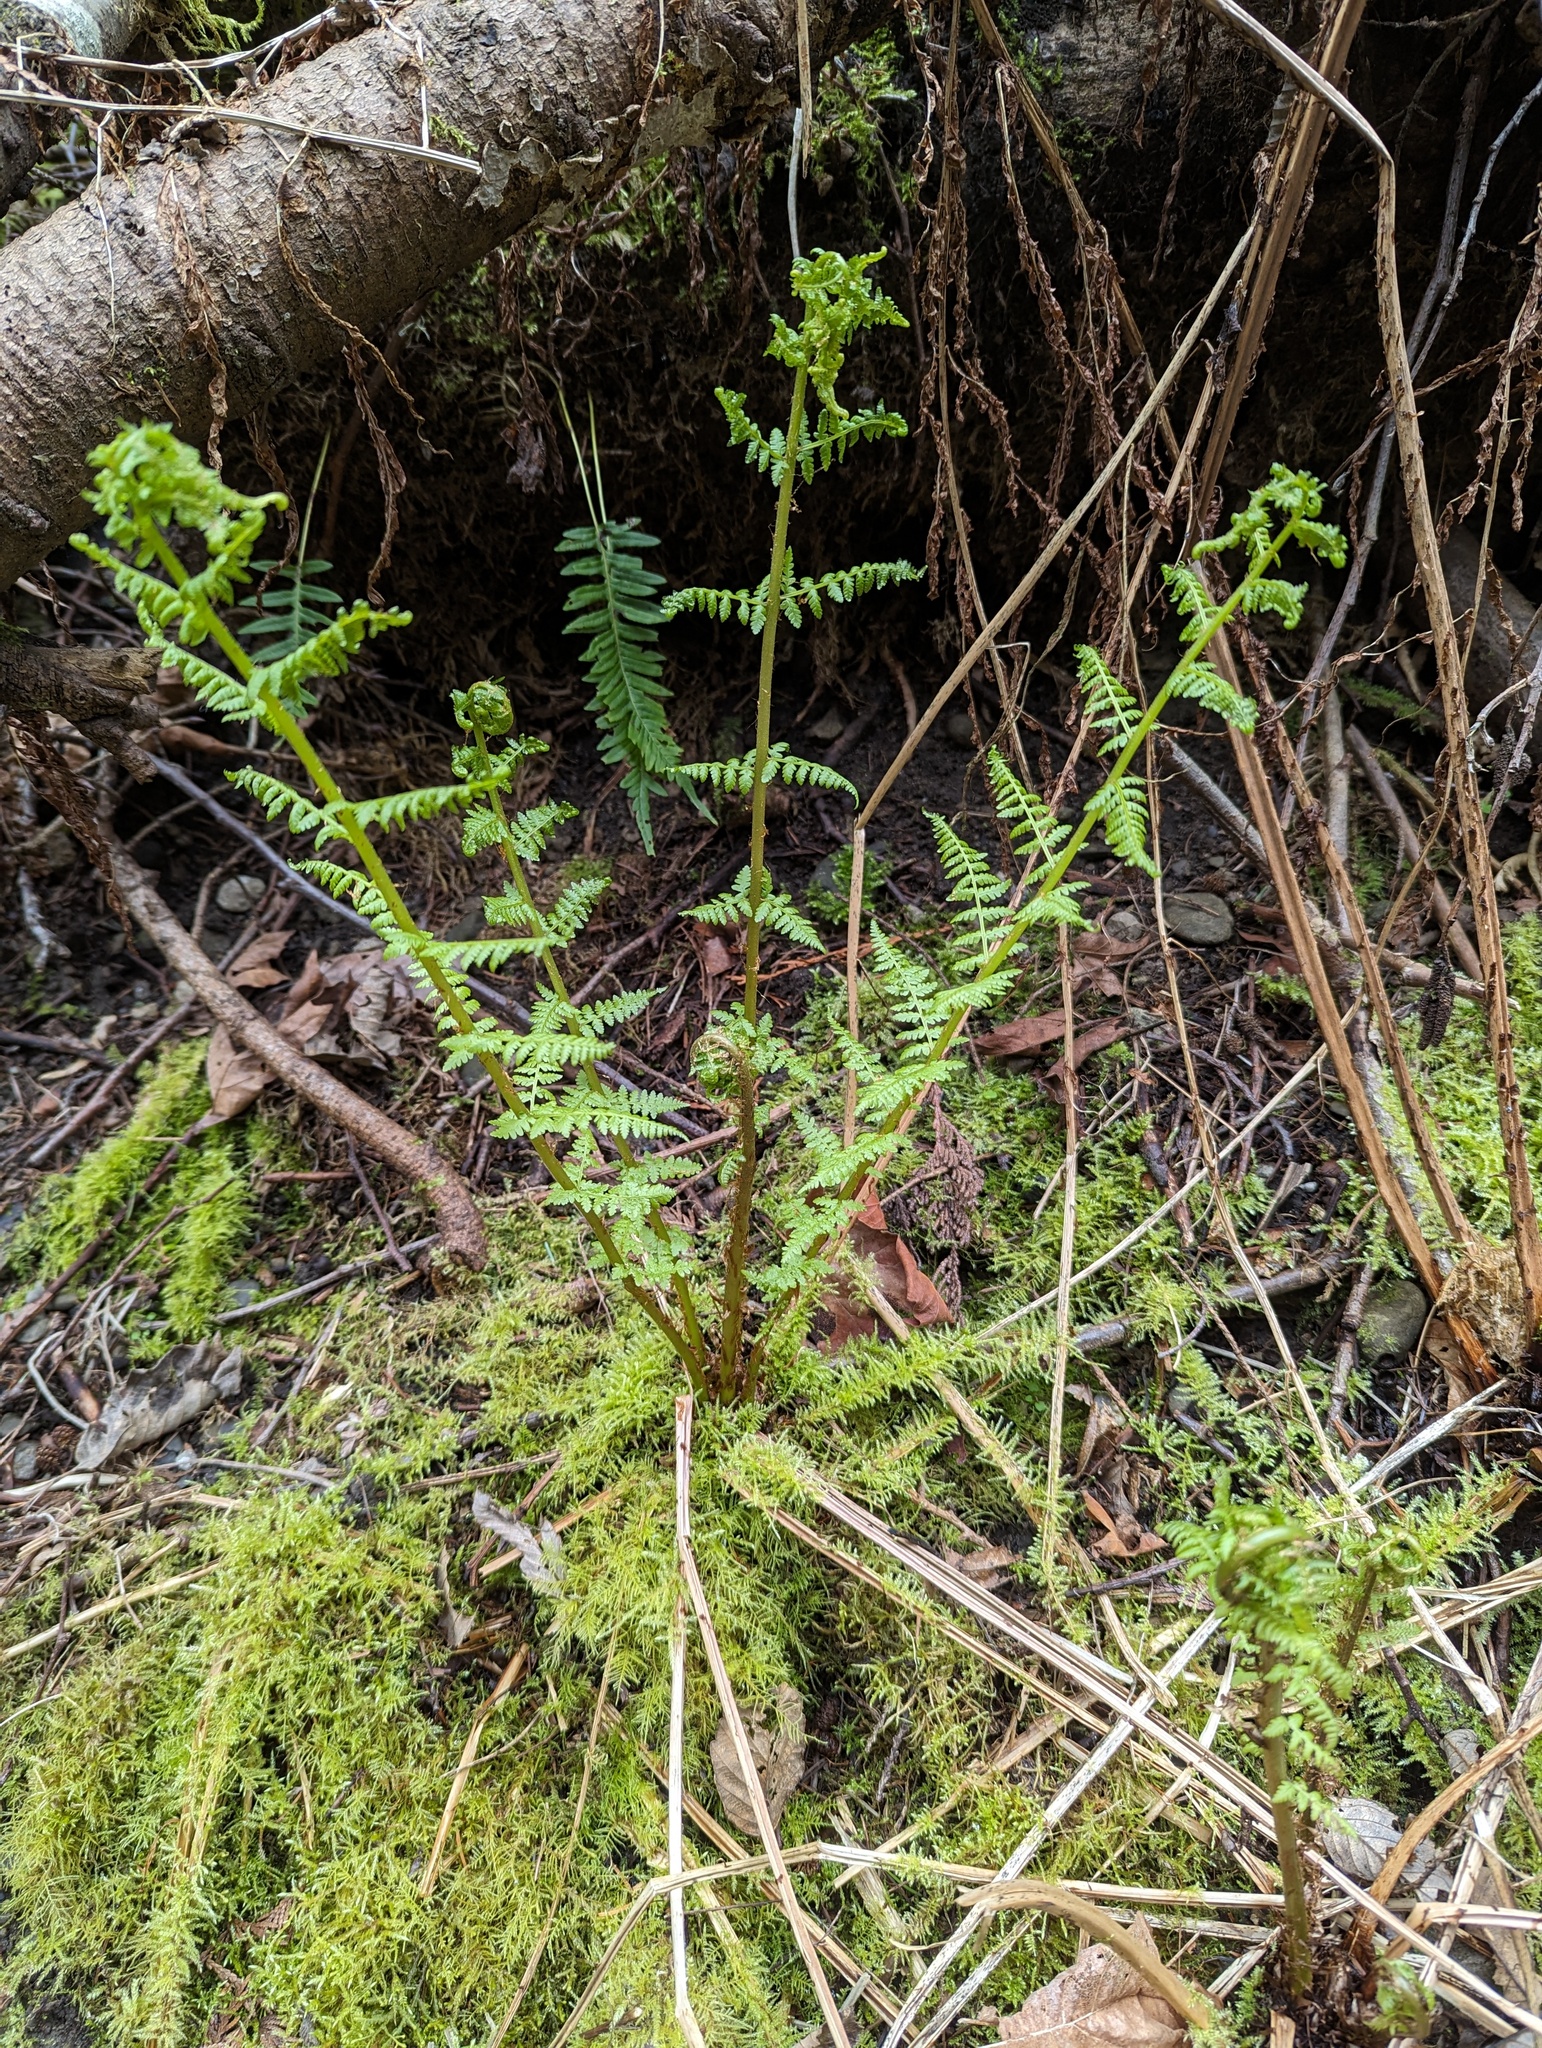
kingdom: Plantae
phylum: Tracheophyta
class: Polypodiopsida
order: Polypodiales
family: Athyriaceae
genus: Athyrium
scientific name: Athyrium cyclosorum
